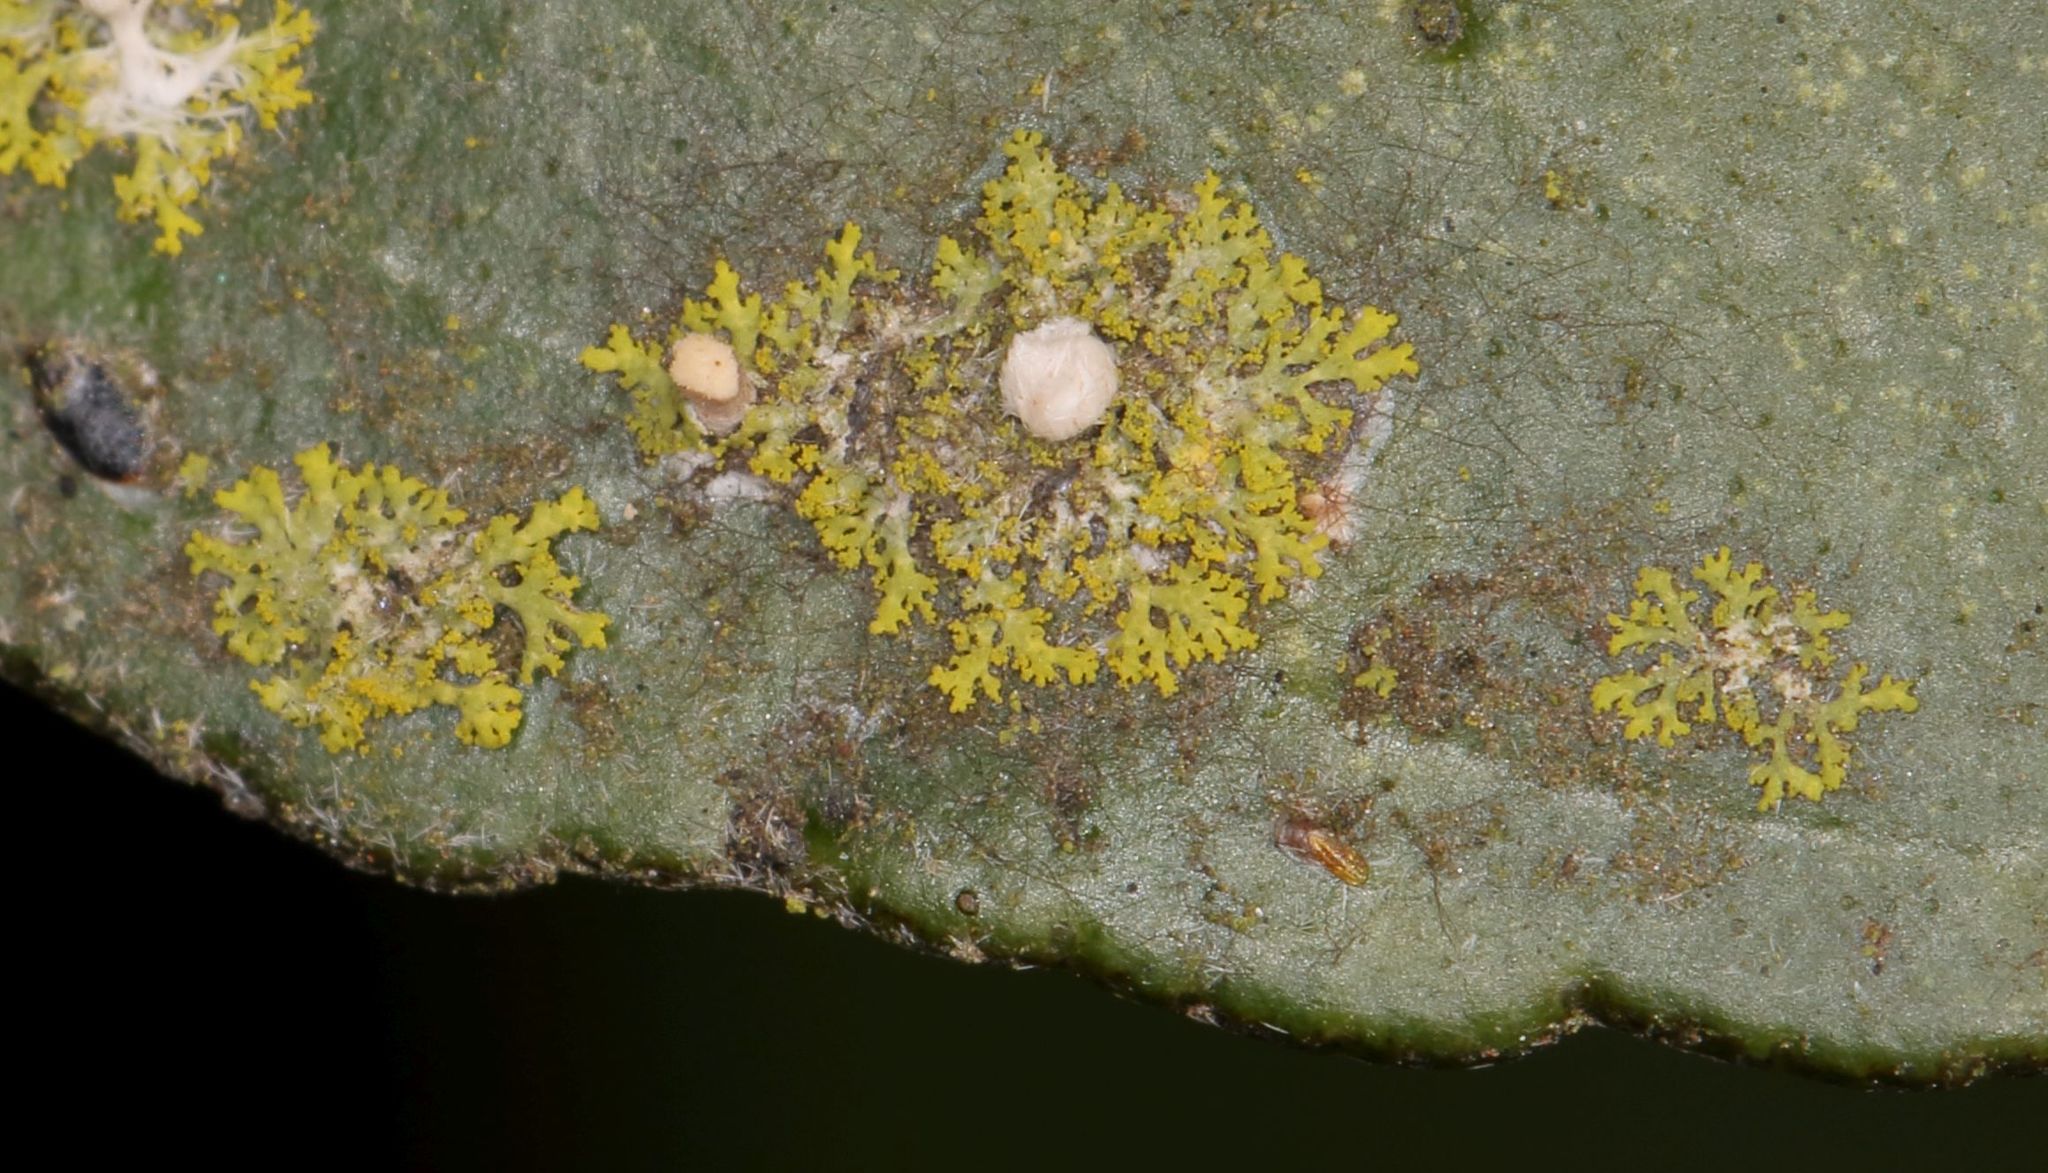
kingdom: Fungi
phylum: Ascomycota
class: Candelariomycetes
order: Candelariales
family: Candelariaceae
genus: Candelaria
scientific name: Candelaria concolor
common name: Candleflame lichen
